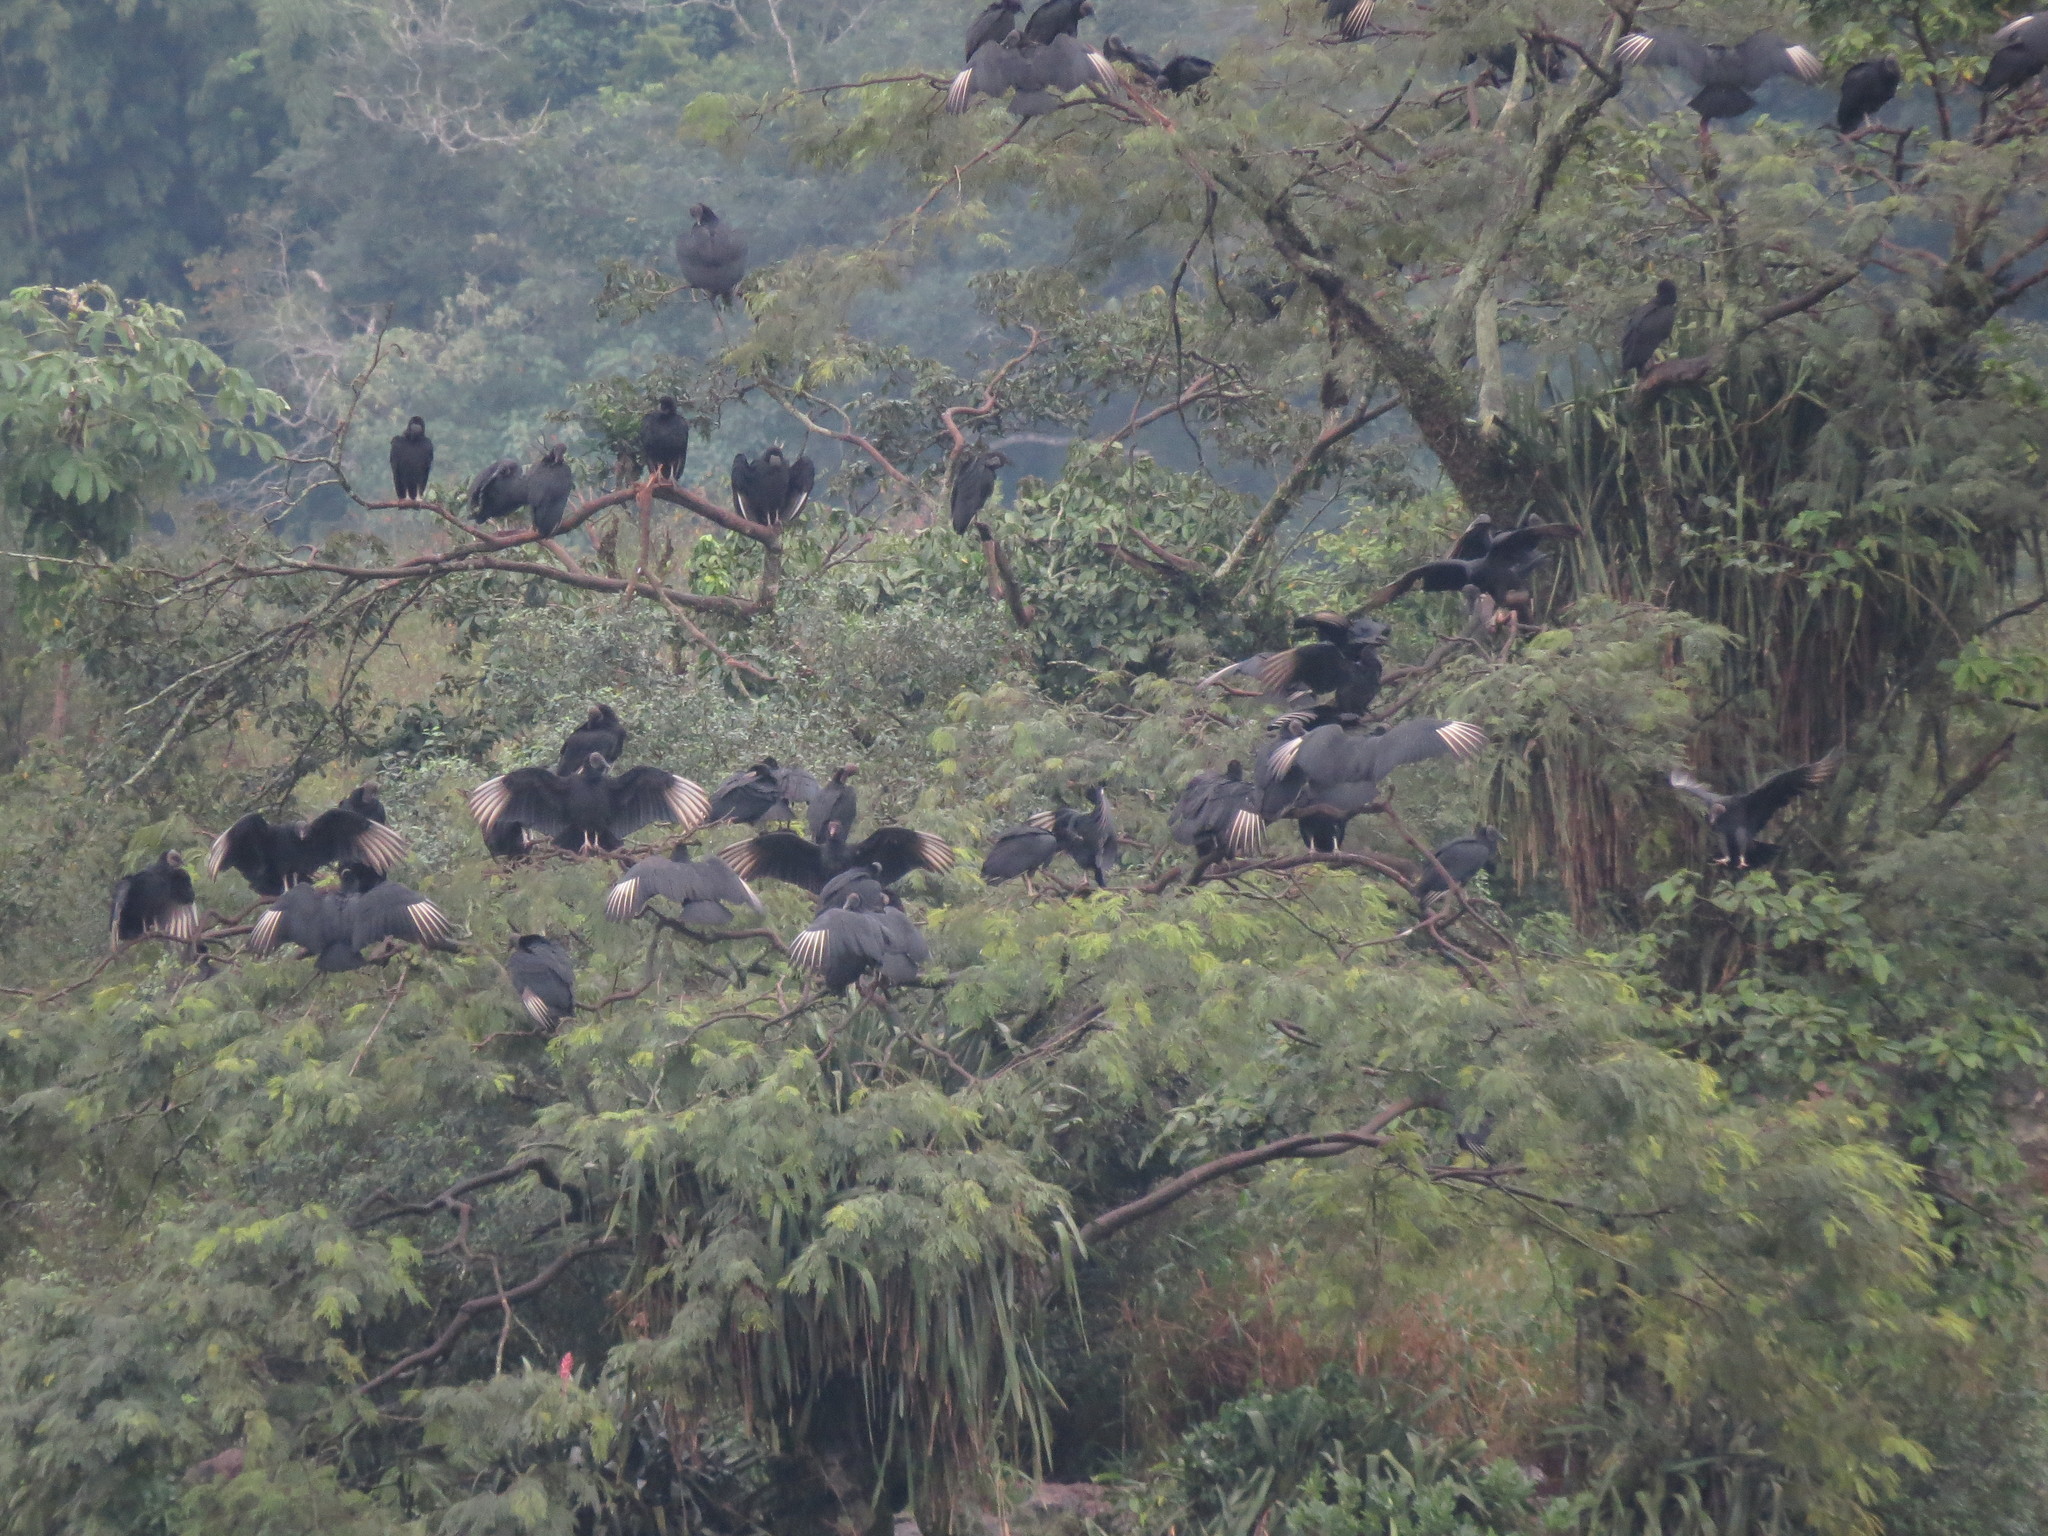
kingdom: Animalia
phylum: Chordata
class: Aves
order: Accipitriformes
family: Cathartidae
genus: Coragyps
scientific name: Coragyps atratus
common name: Black vulture
